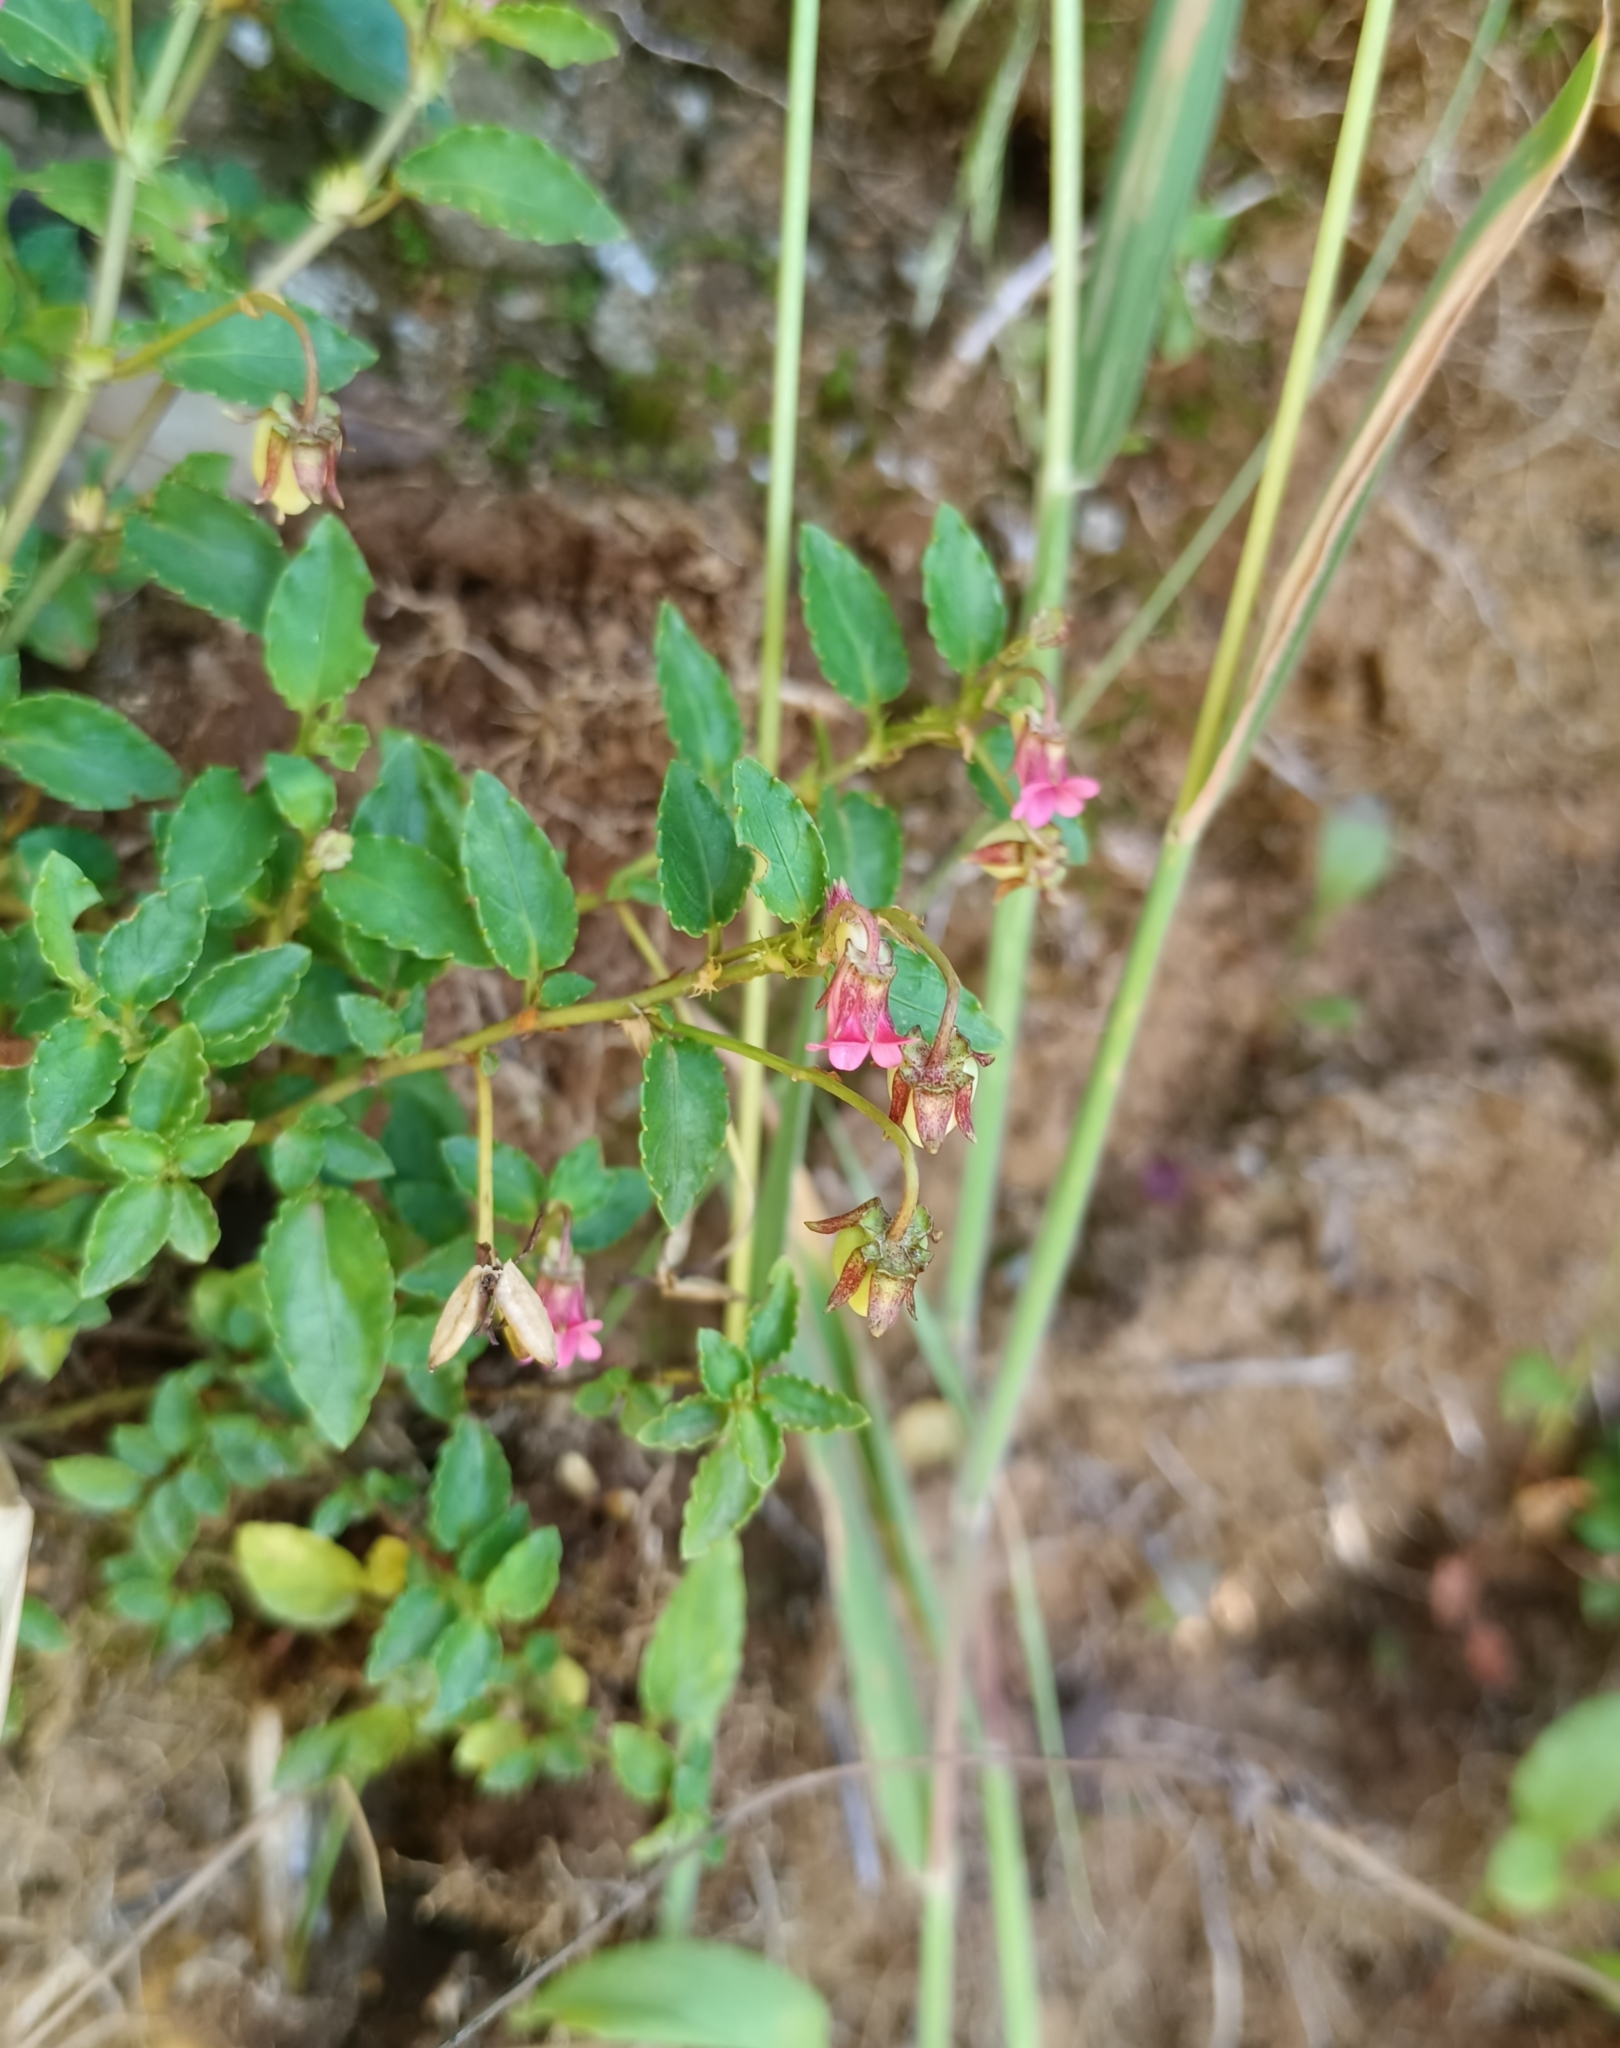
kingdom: Plantae
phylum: Tracheophyta
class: Magnoliopsida
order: Malpighiales
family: Violaceae
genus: Viola
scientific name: Viola rubella
